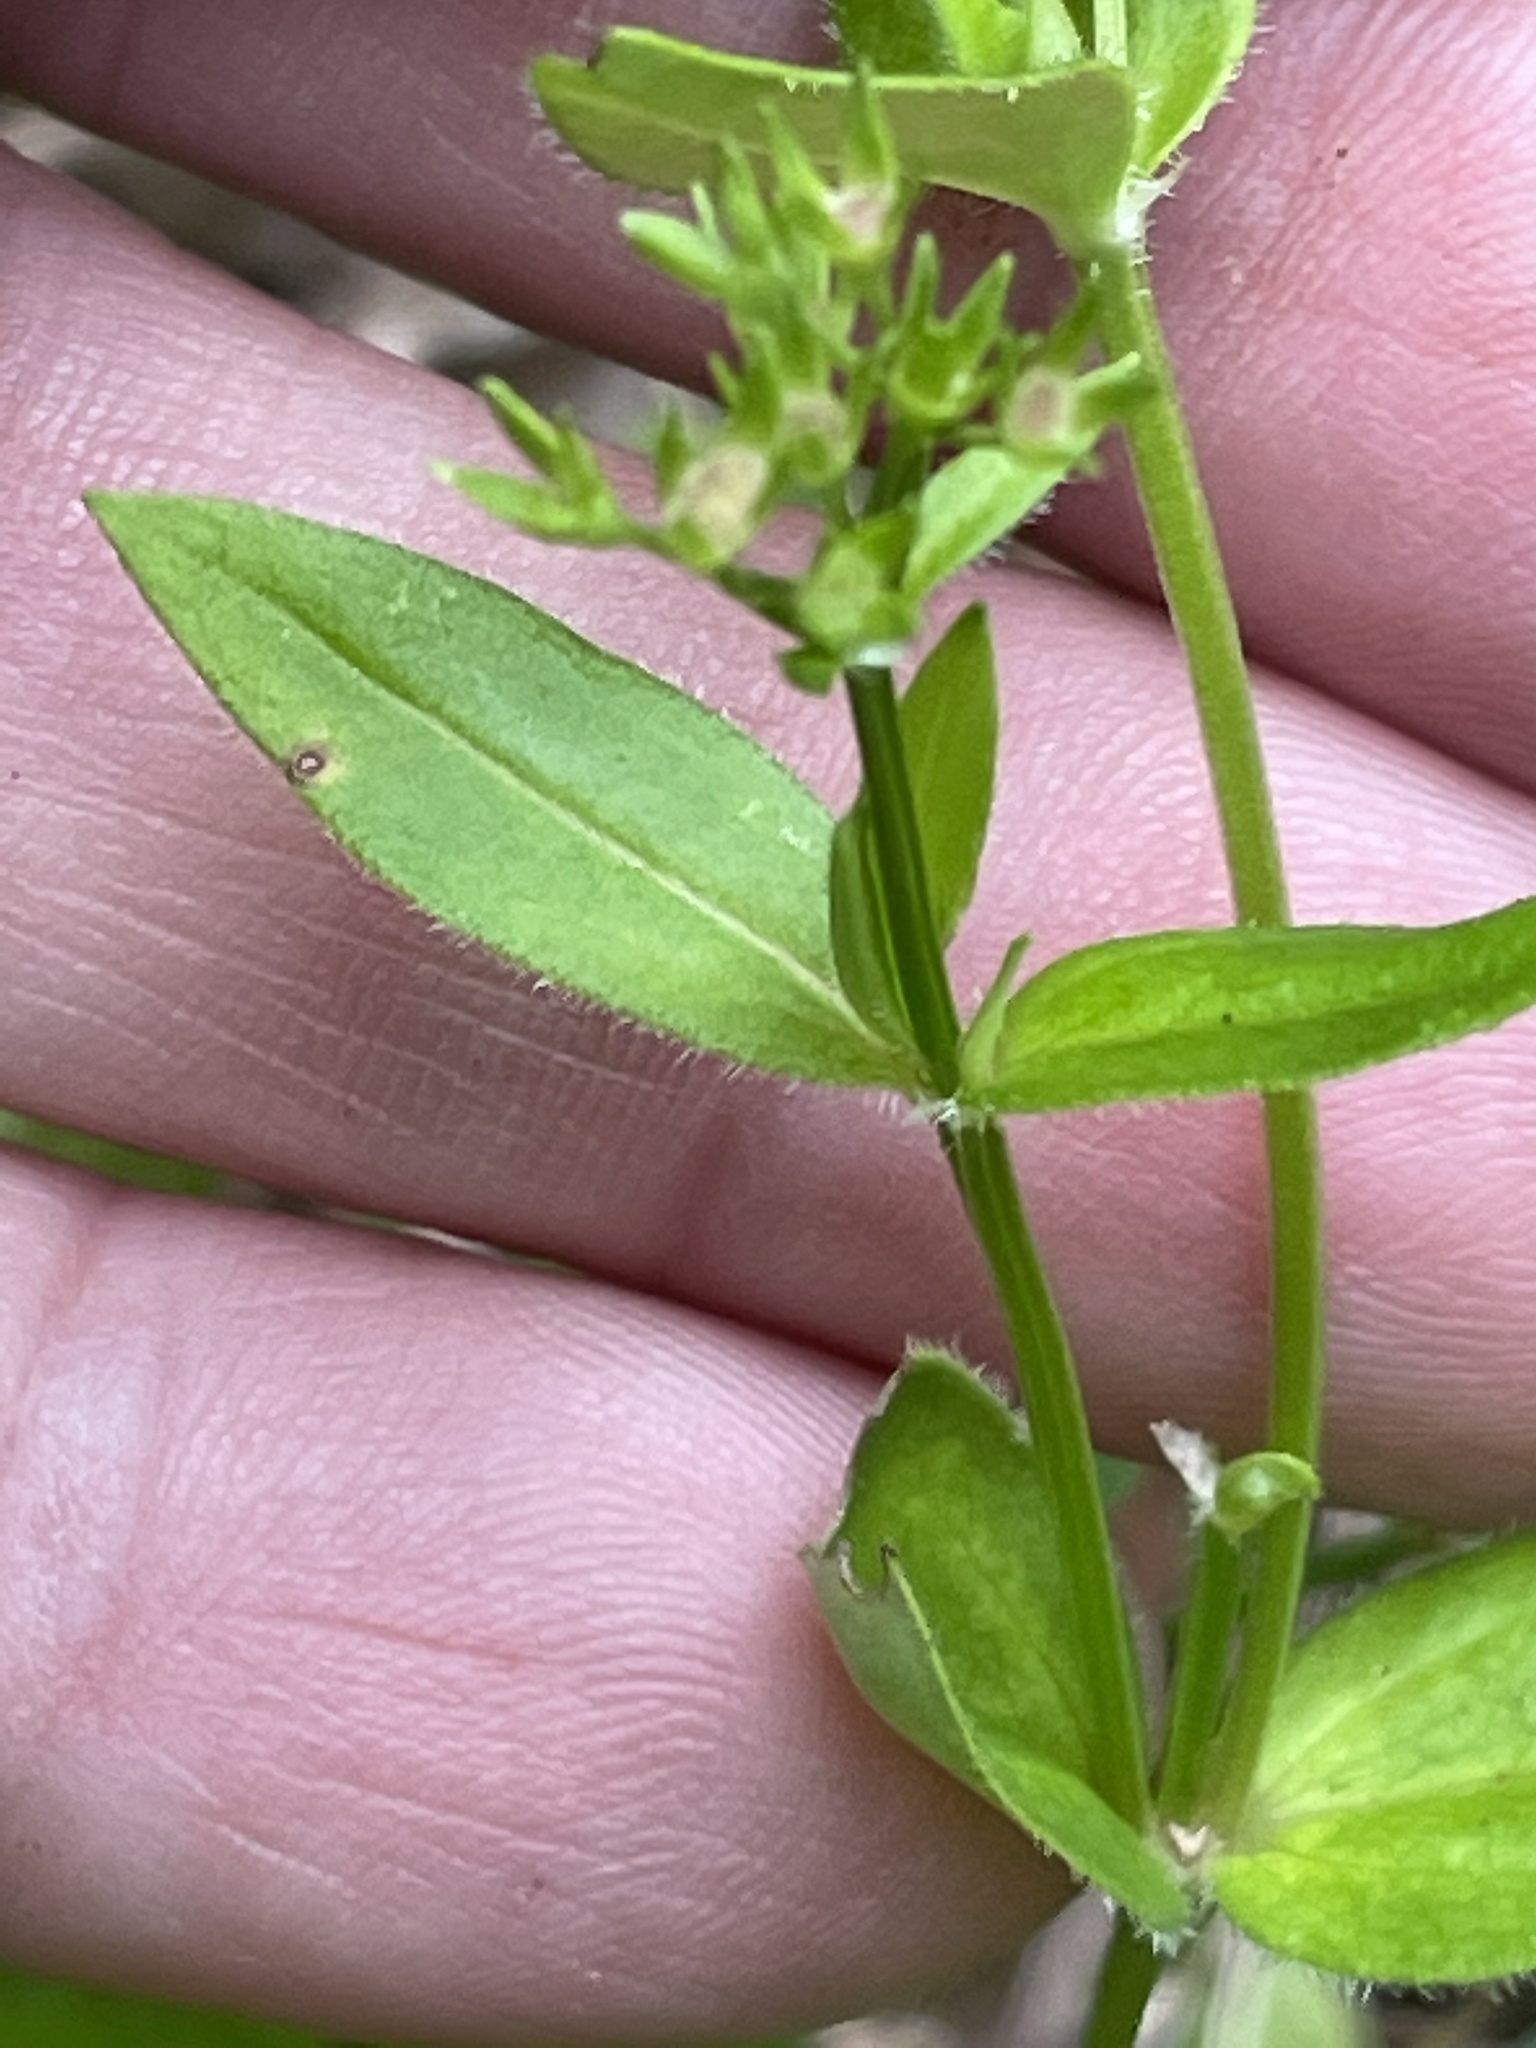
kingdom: Plantae
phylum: Tracheophyta
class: Magnoliopsida
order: Gentianales
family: Rubiaceae
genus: Houstonia
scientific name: Houstonia purpurea
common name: Summer bluet
